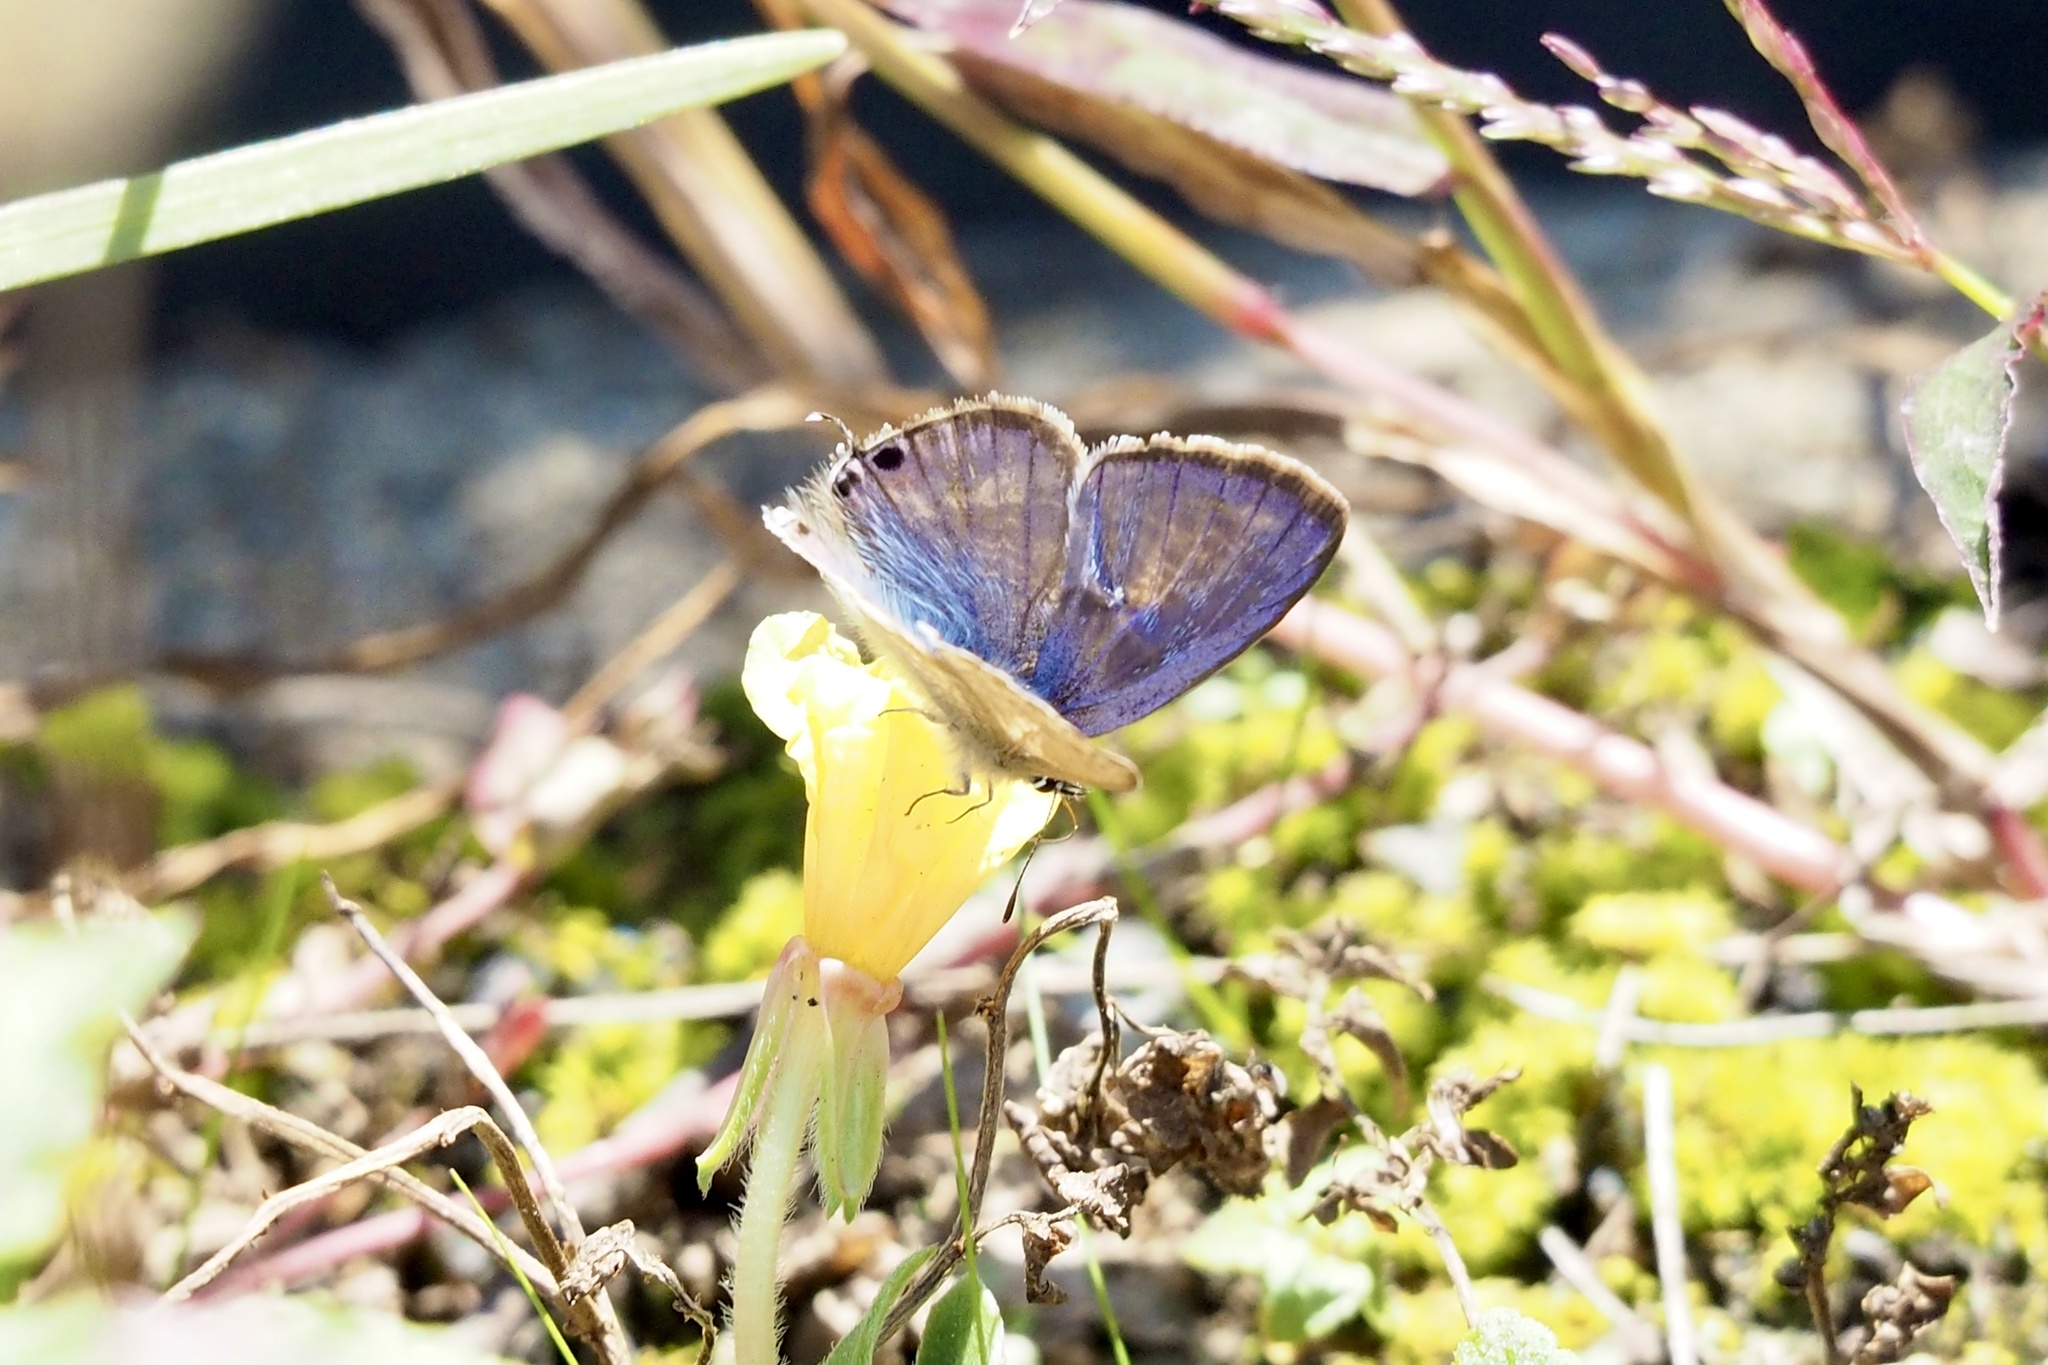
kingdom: Animalia
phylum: Arthropoda
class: Insecta
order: Lepidoptera
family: Lycaenidae
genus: Lampides
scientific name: Lampides boeticus
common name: Long-tailed blue
